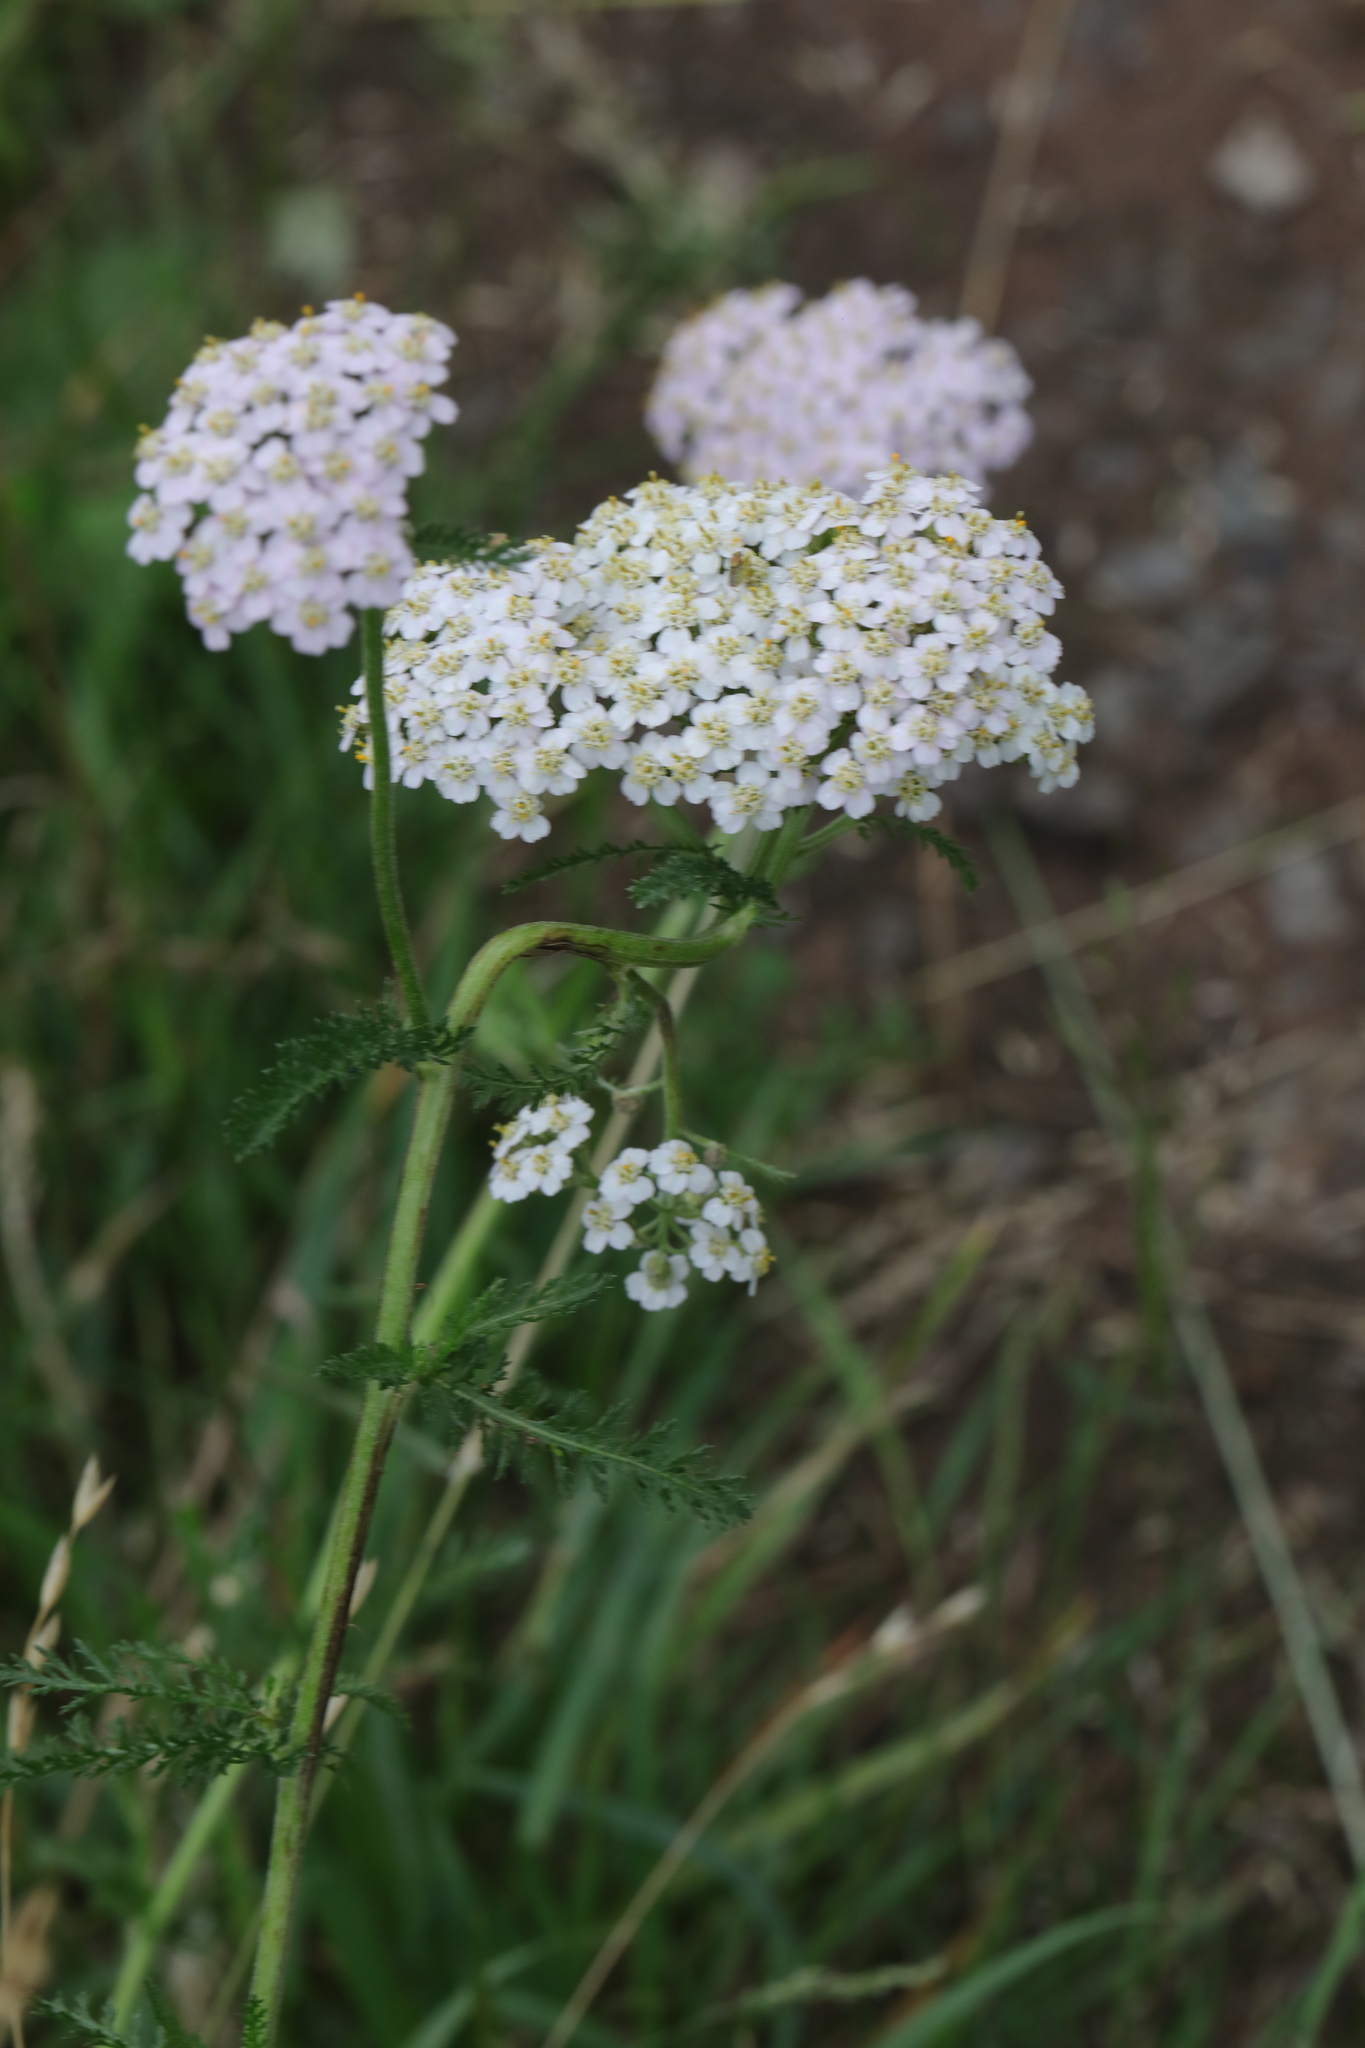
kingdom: Plantae
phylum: Tracheophyta
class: Magnoliopsida
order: Asterales
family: Asteraceae
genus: Achillea
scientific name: Achillea millefolium
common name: Yarrow
